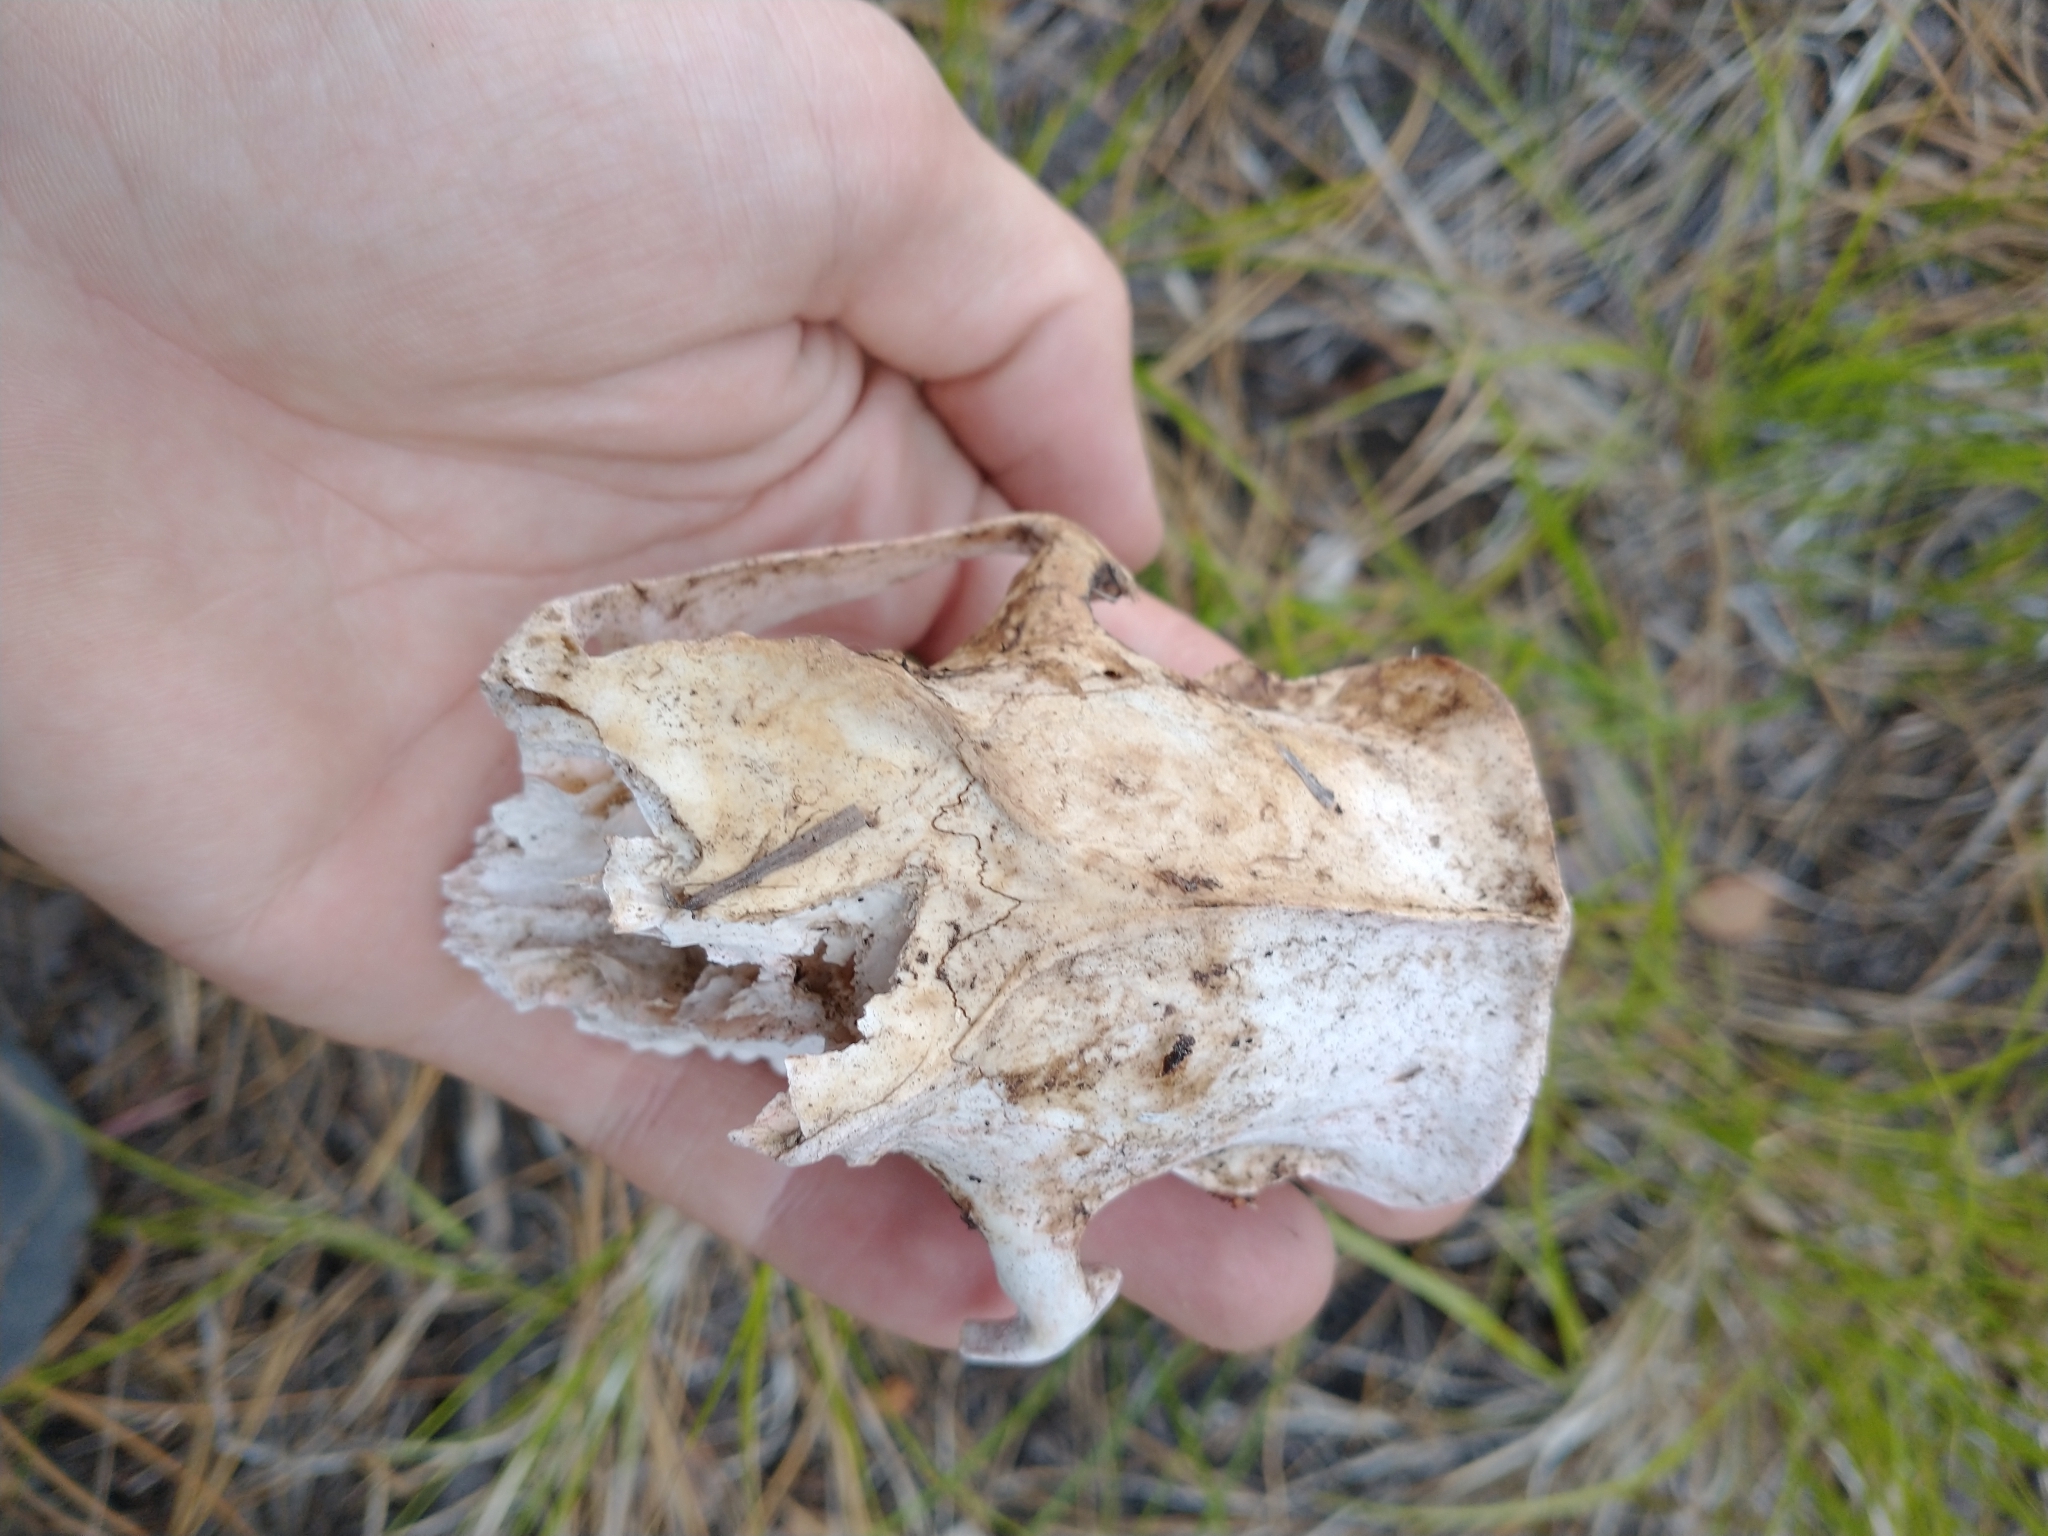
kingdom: Animalia
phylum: Chordata
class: Mammalia
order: Rodentia
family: Erethizontidae
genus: Erethizon
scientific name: Erethizon dorsatus
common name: North american porcupine
